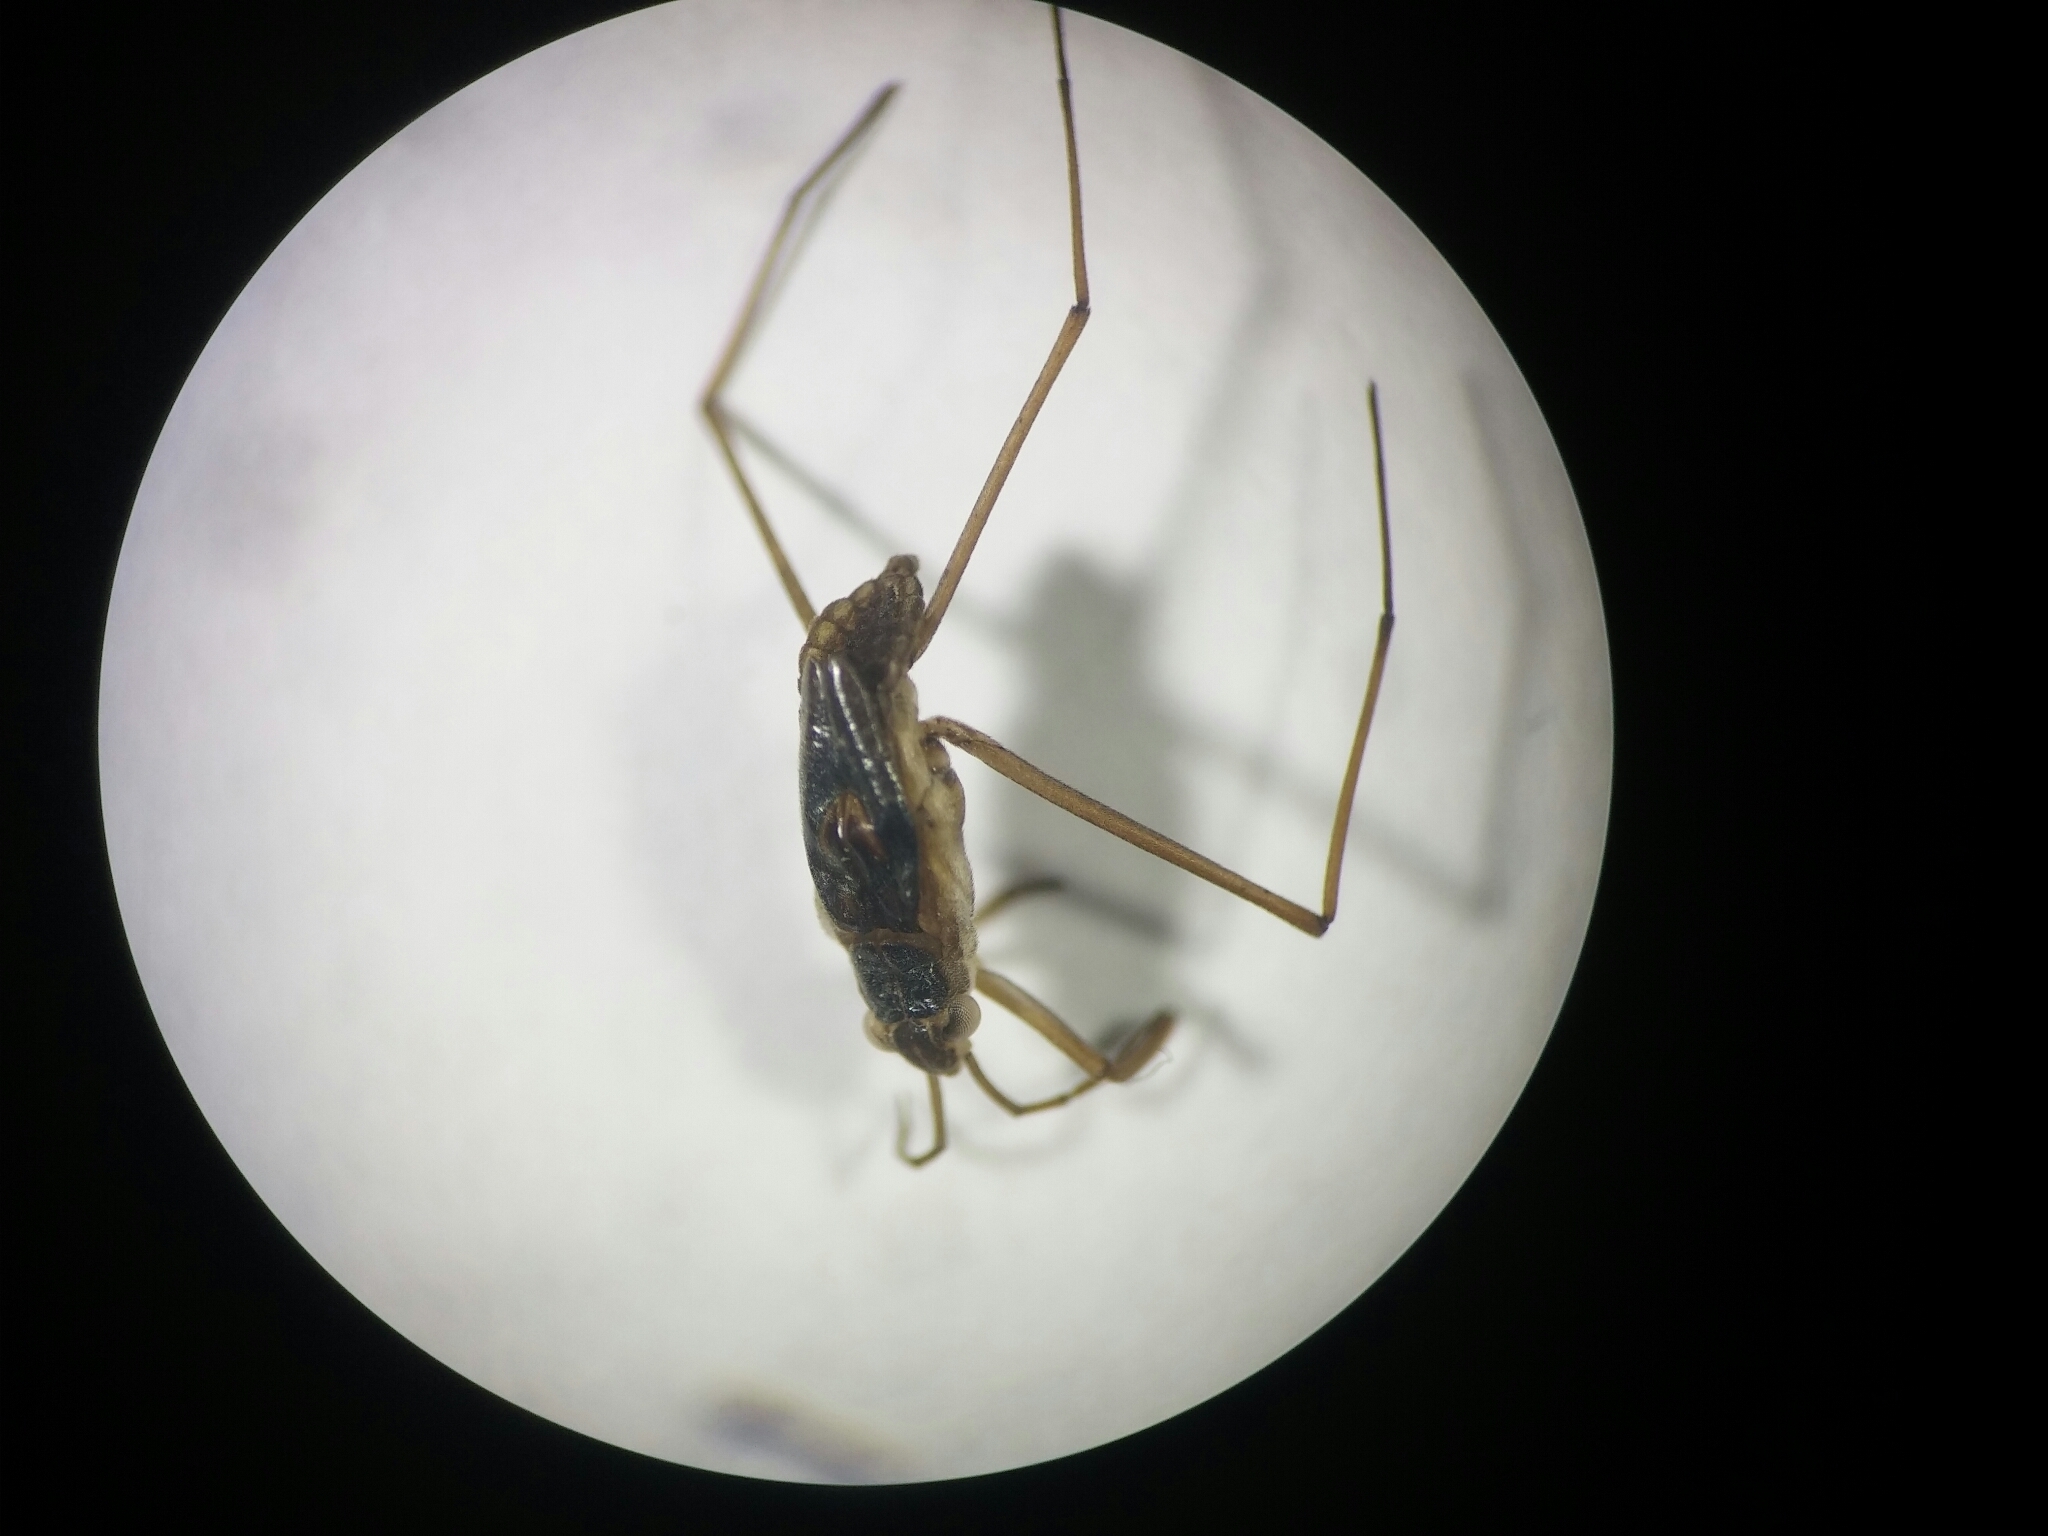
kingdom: Animalia
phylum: Arthropoda
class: Insecta
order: Hemiptera
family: Gerridae
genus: Gerris
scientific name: Gerris thoracicus
